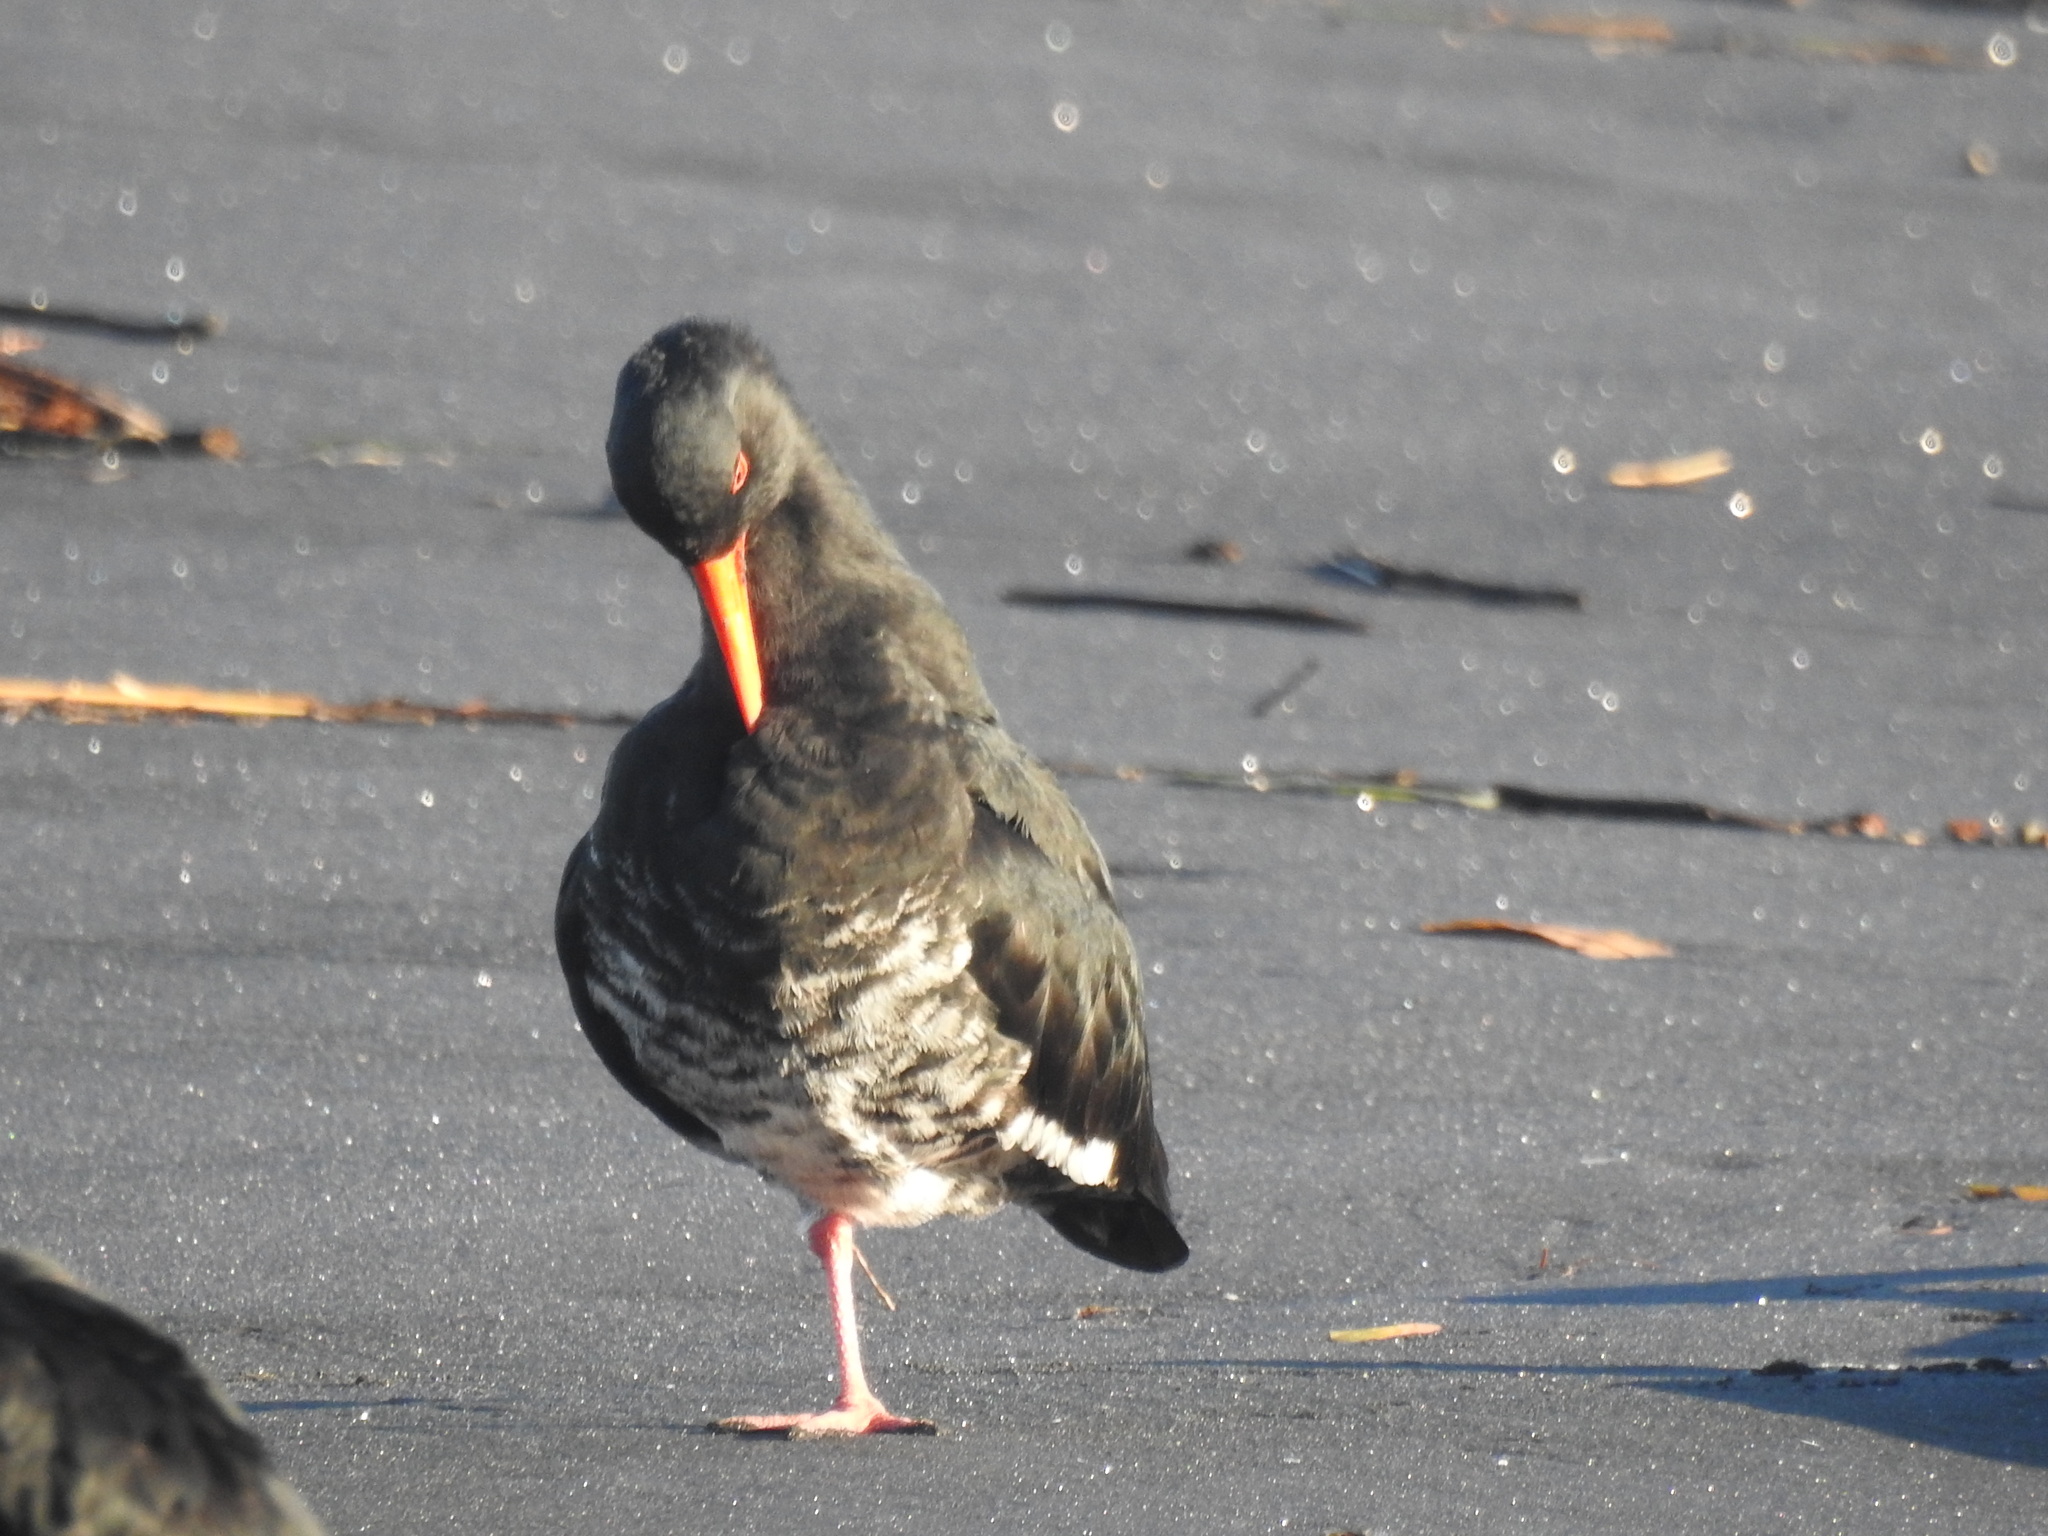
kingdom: Animalia
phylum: Chordata
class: Aves
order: Charadriiformes
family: Haematopodidae
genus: Haematopus
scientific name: Haematopus unicolor
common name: Variable oystercatcher
